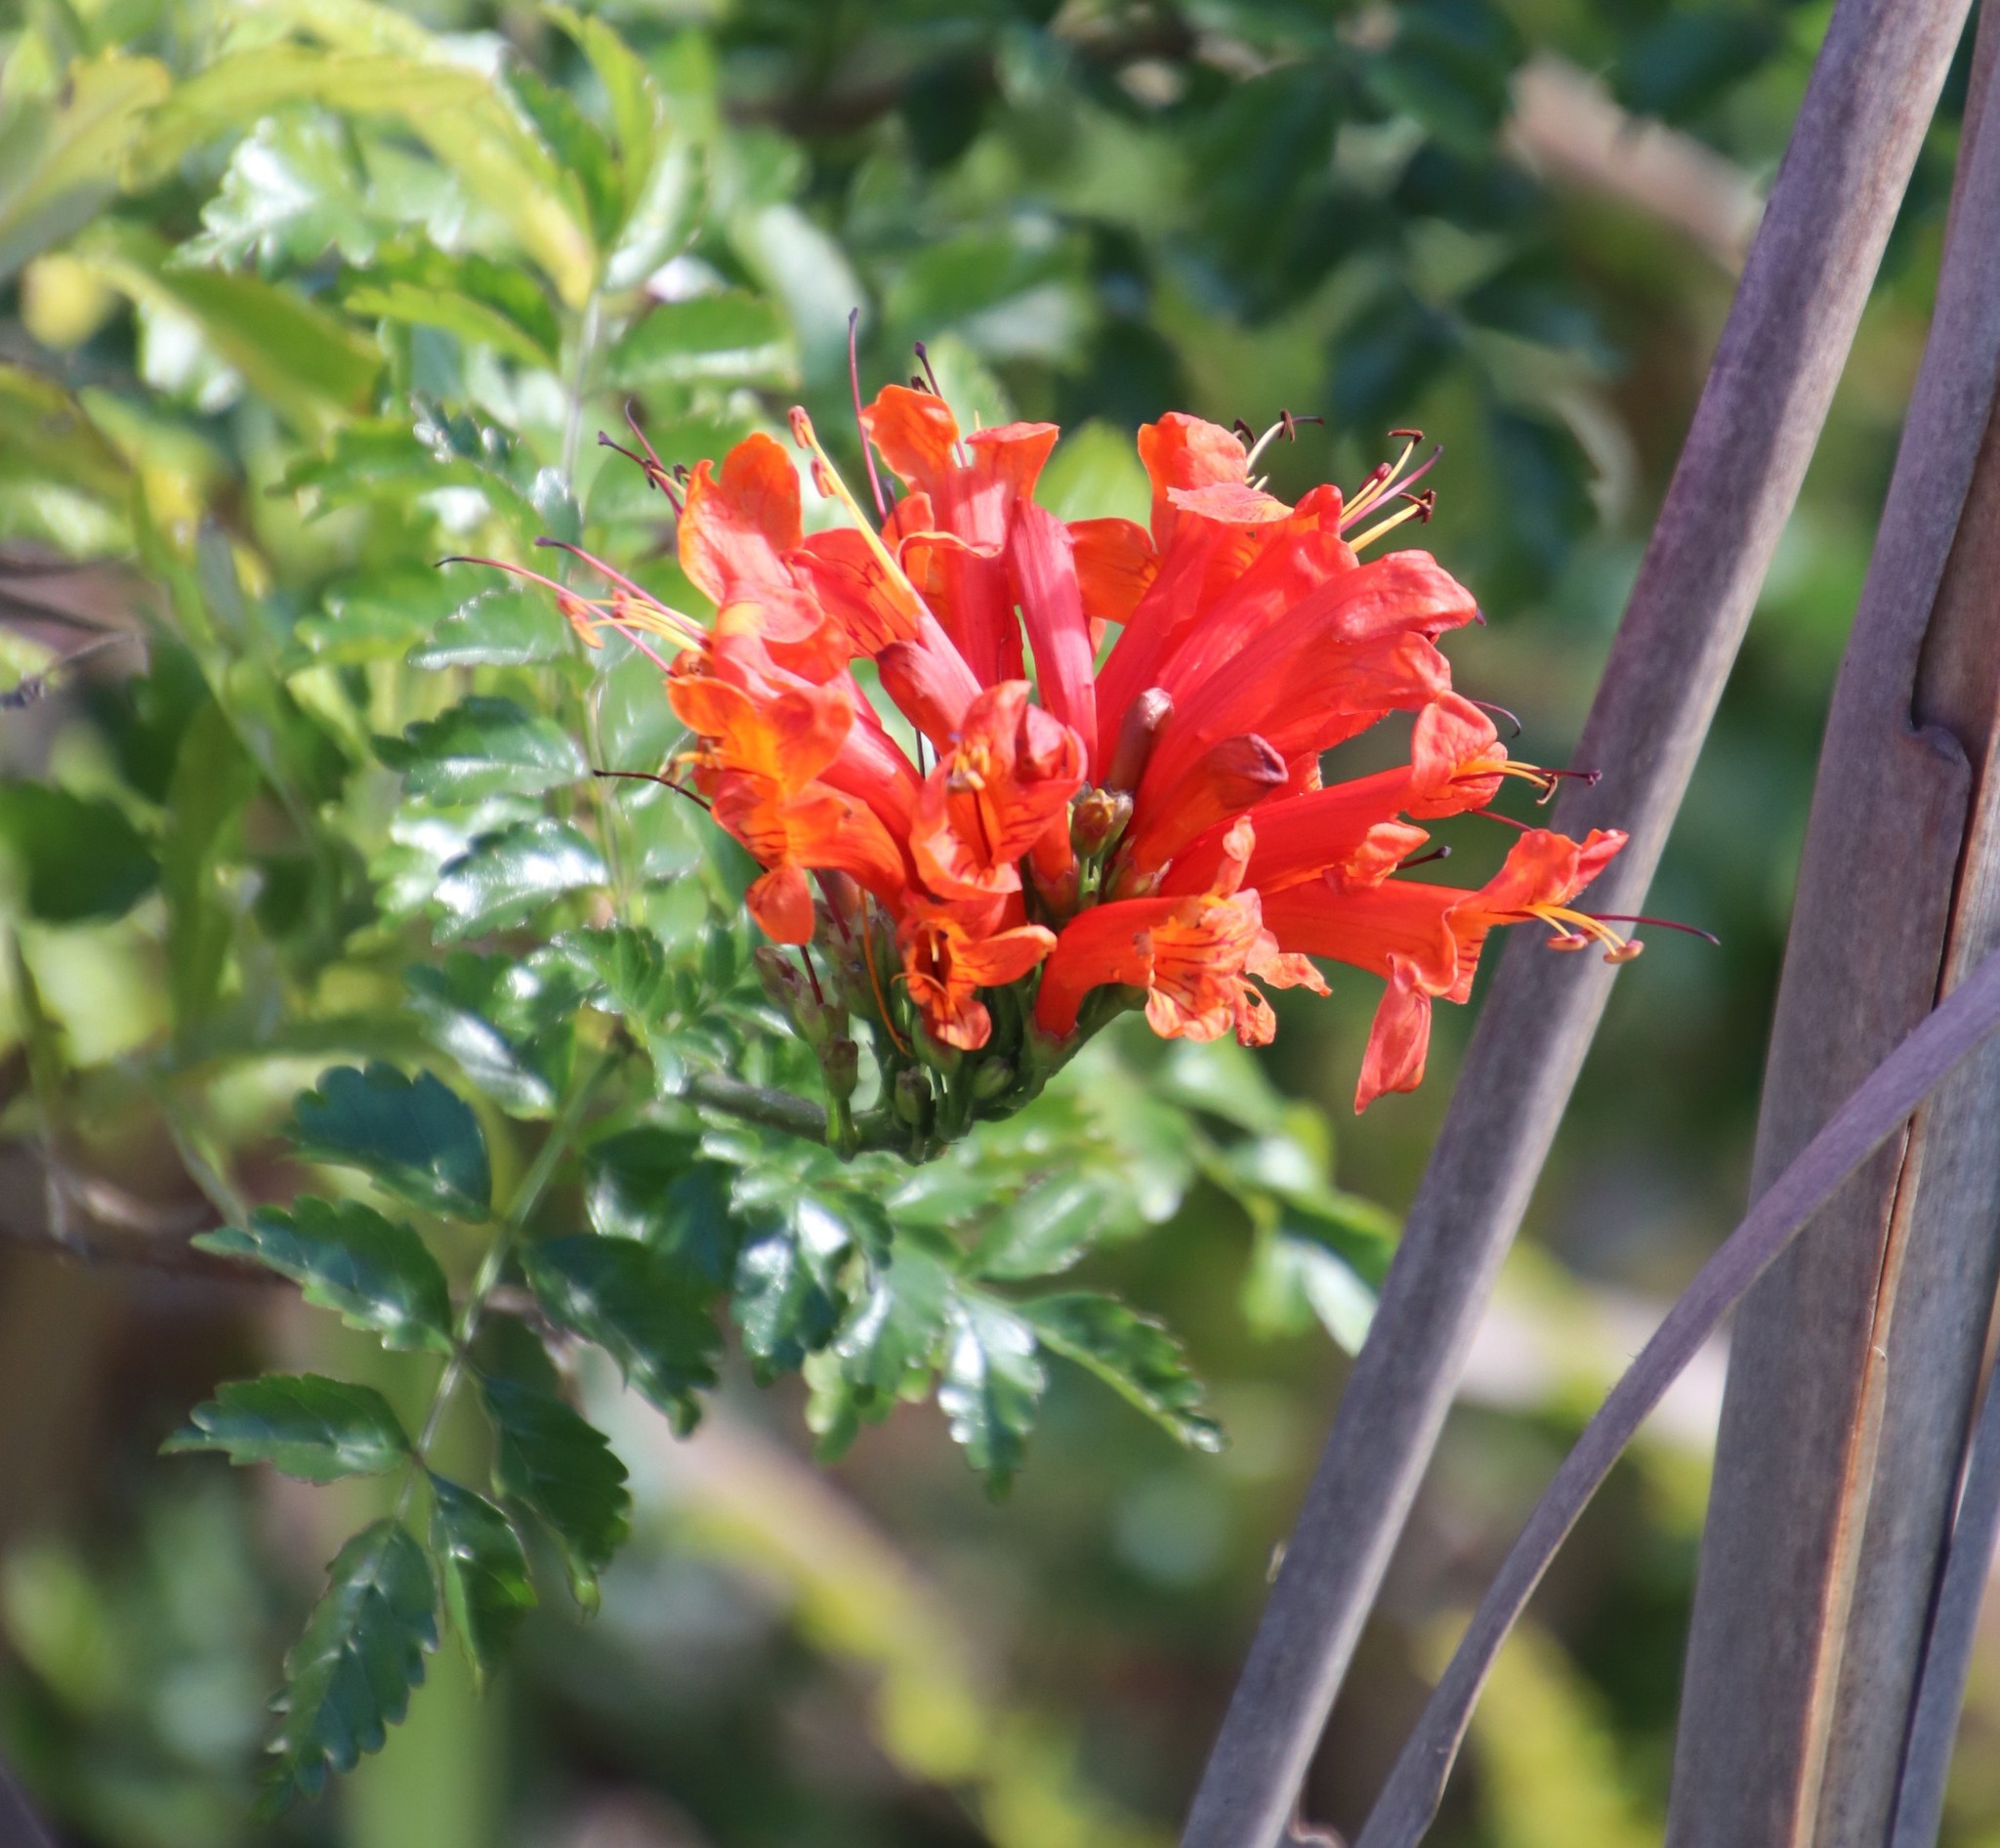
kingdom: Plantae
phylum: Tracheophyta
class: Magnoliopsida
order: Lamiales
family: Bignoniaceae
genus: Tecomaria
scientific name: Tecomaria capensis
